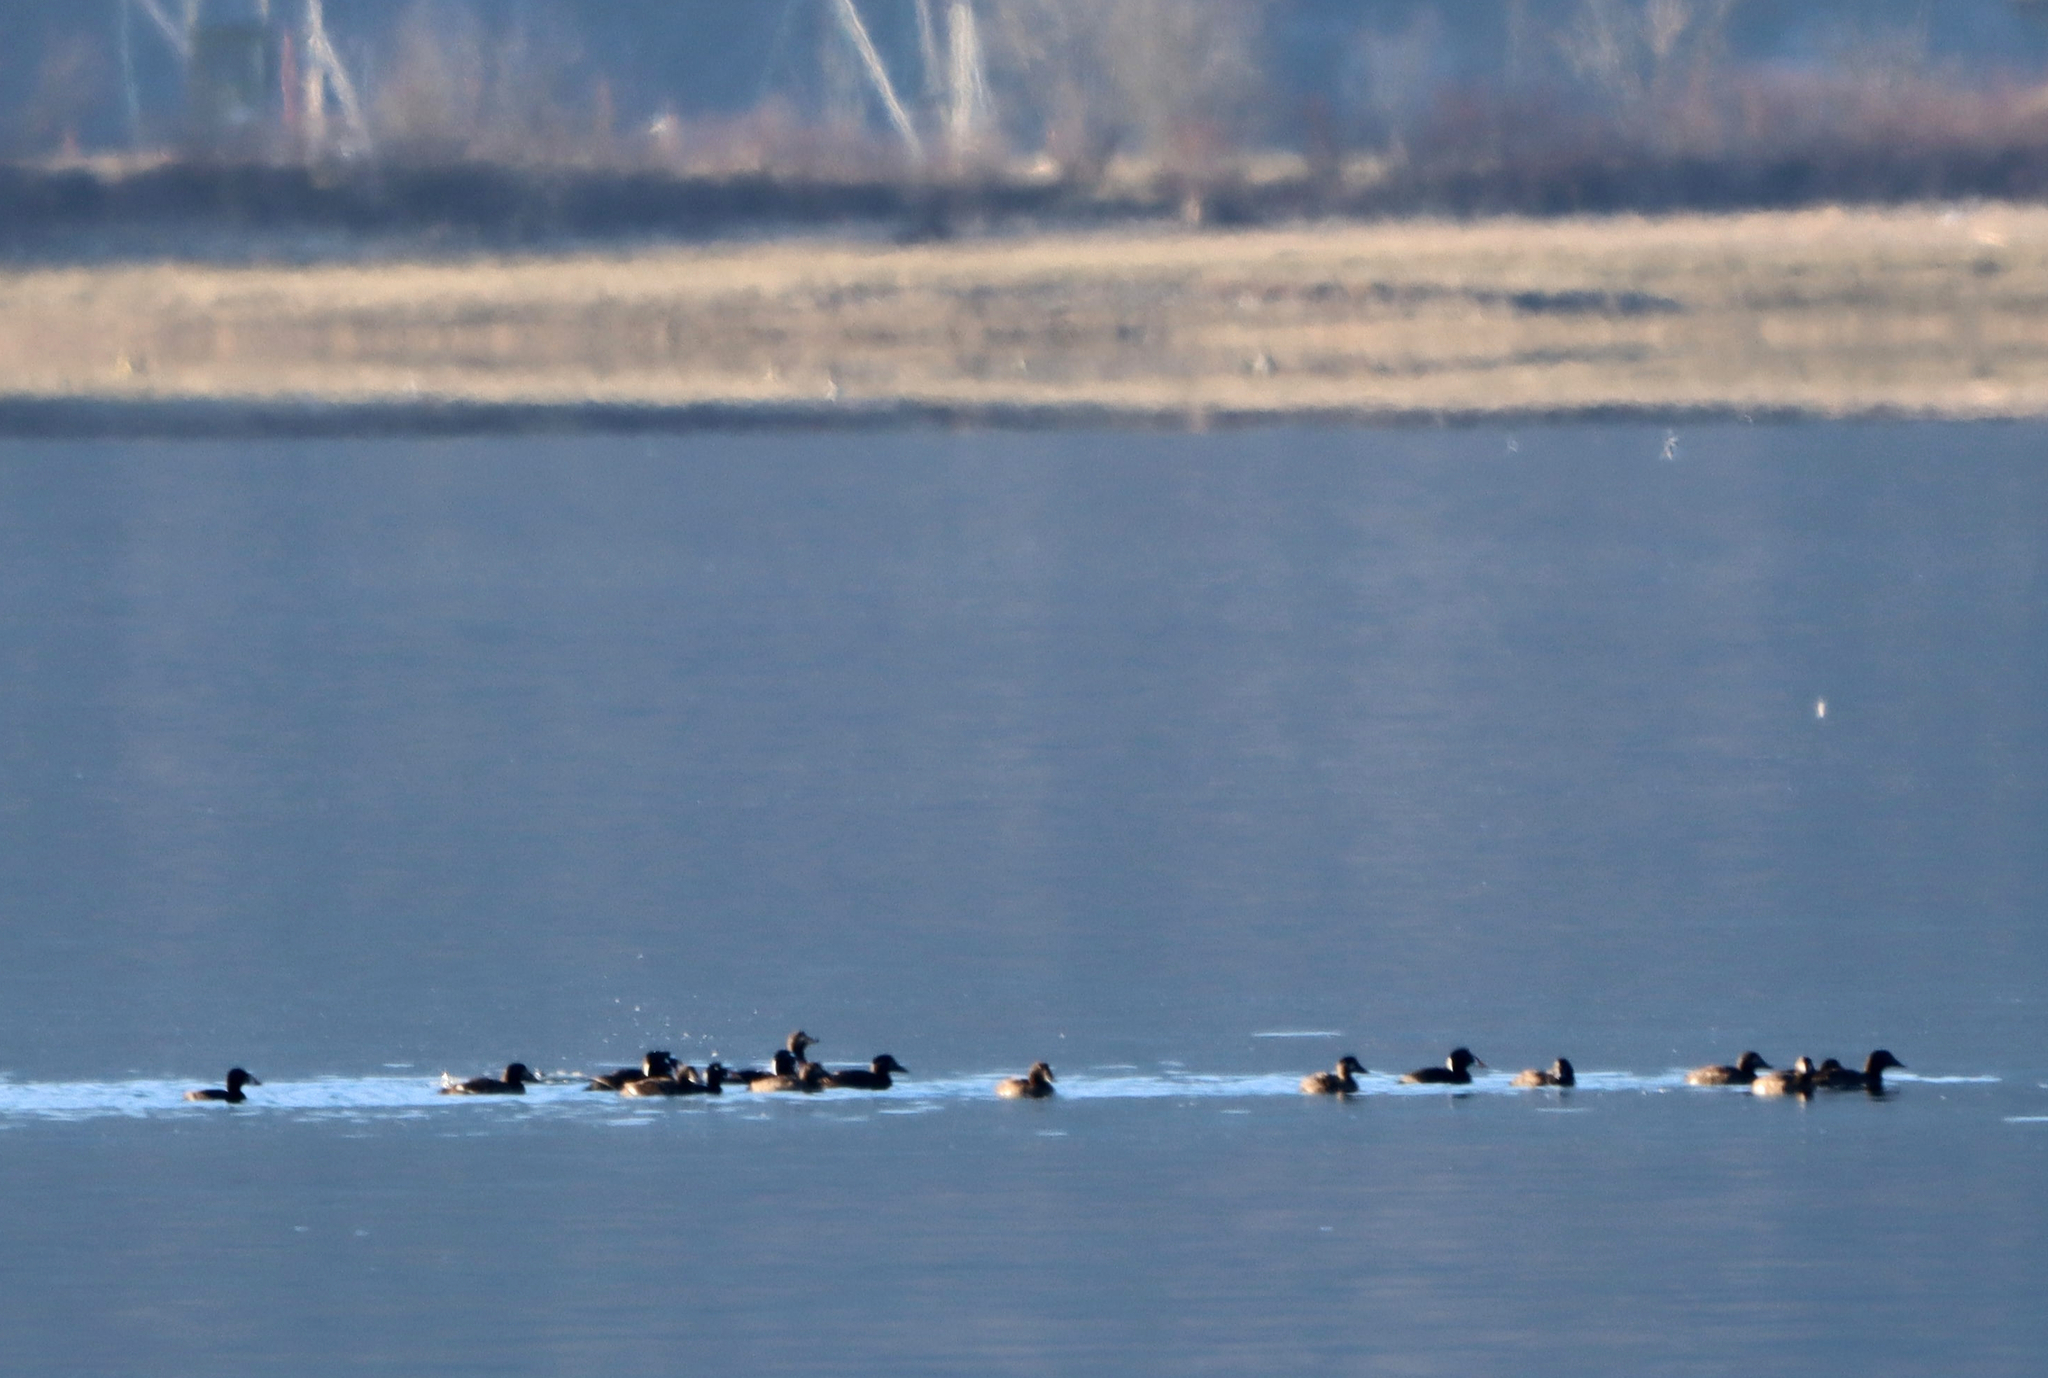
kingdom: Animalia
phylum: Chordata
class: Aves
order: Anseriformes
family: Anatidae
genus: Melanitta
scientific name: Melanitta perspicillata
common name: Surf scoter
